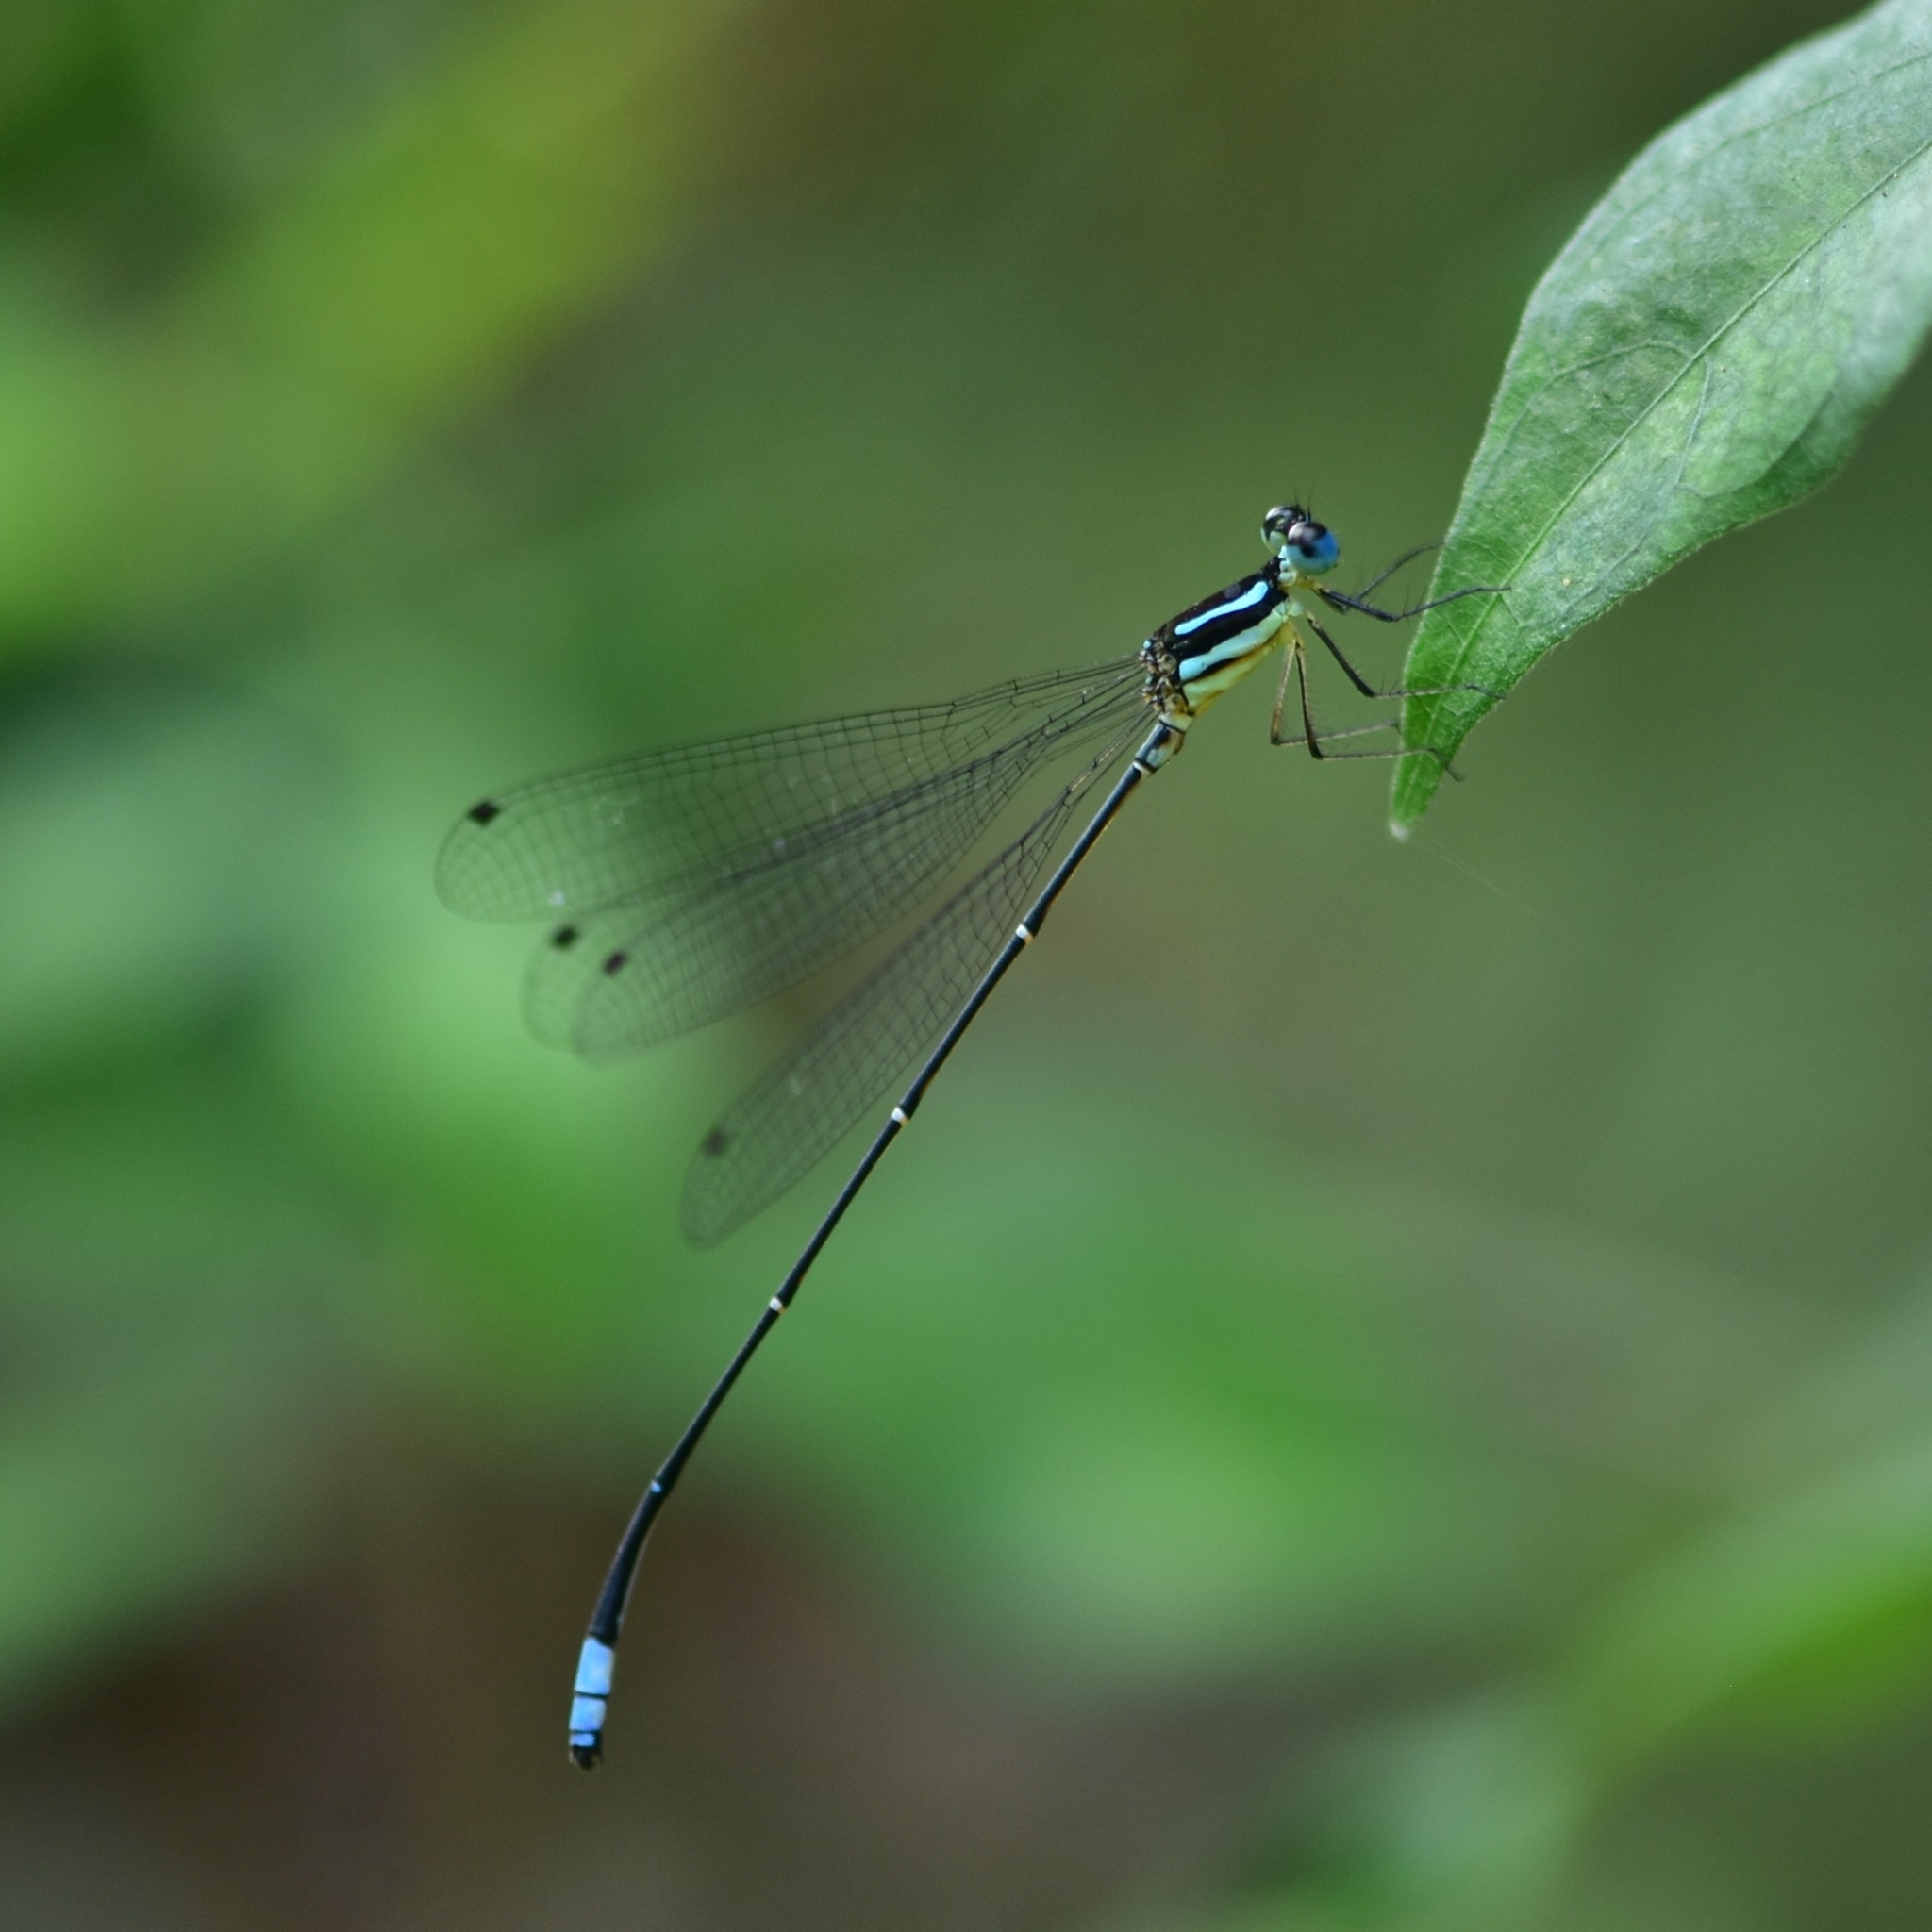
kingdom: Animalia
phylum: Arthropoda
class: Insecta
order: Odonata
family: Platycnemididae
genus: Caconeura
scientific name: Caconeura risi
